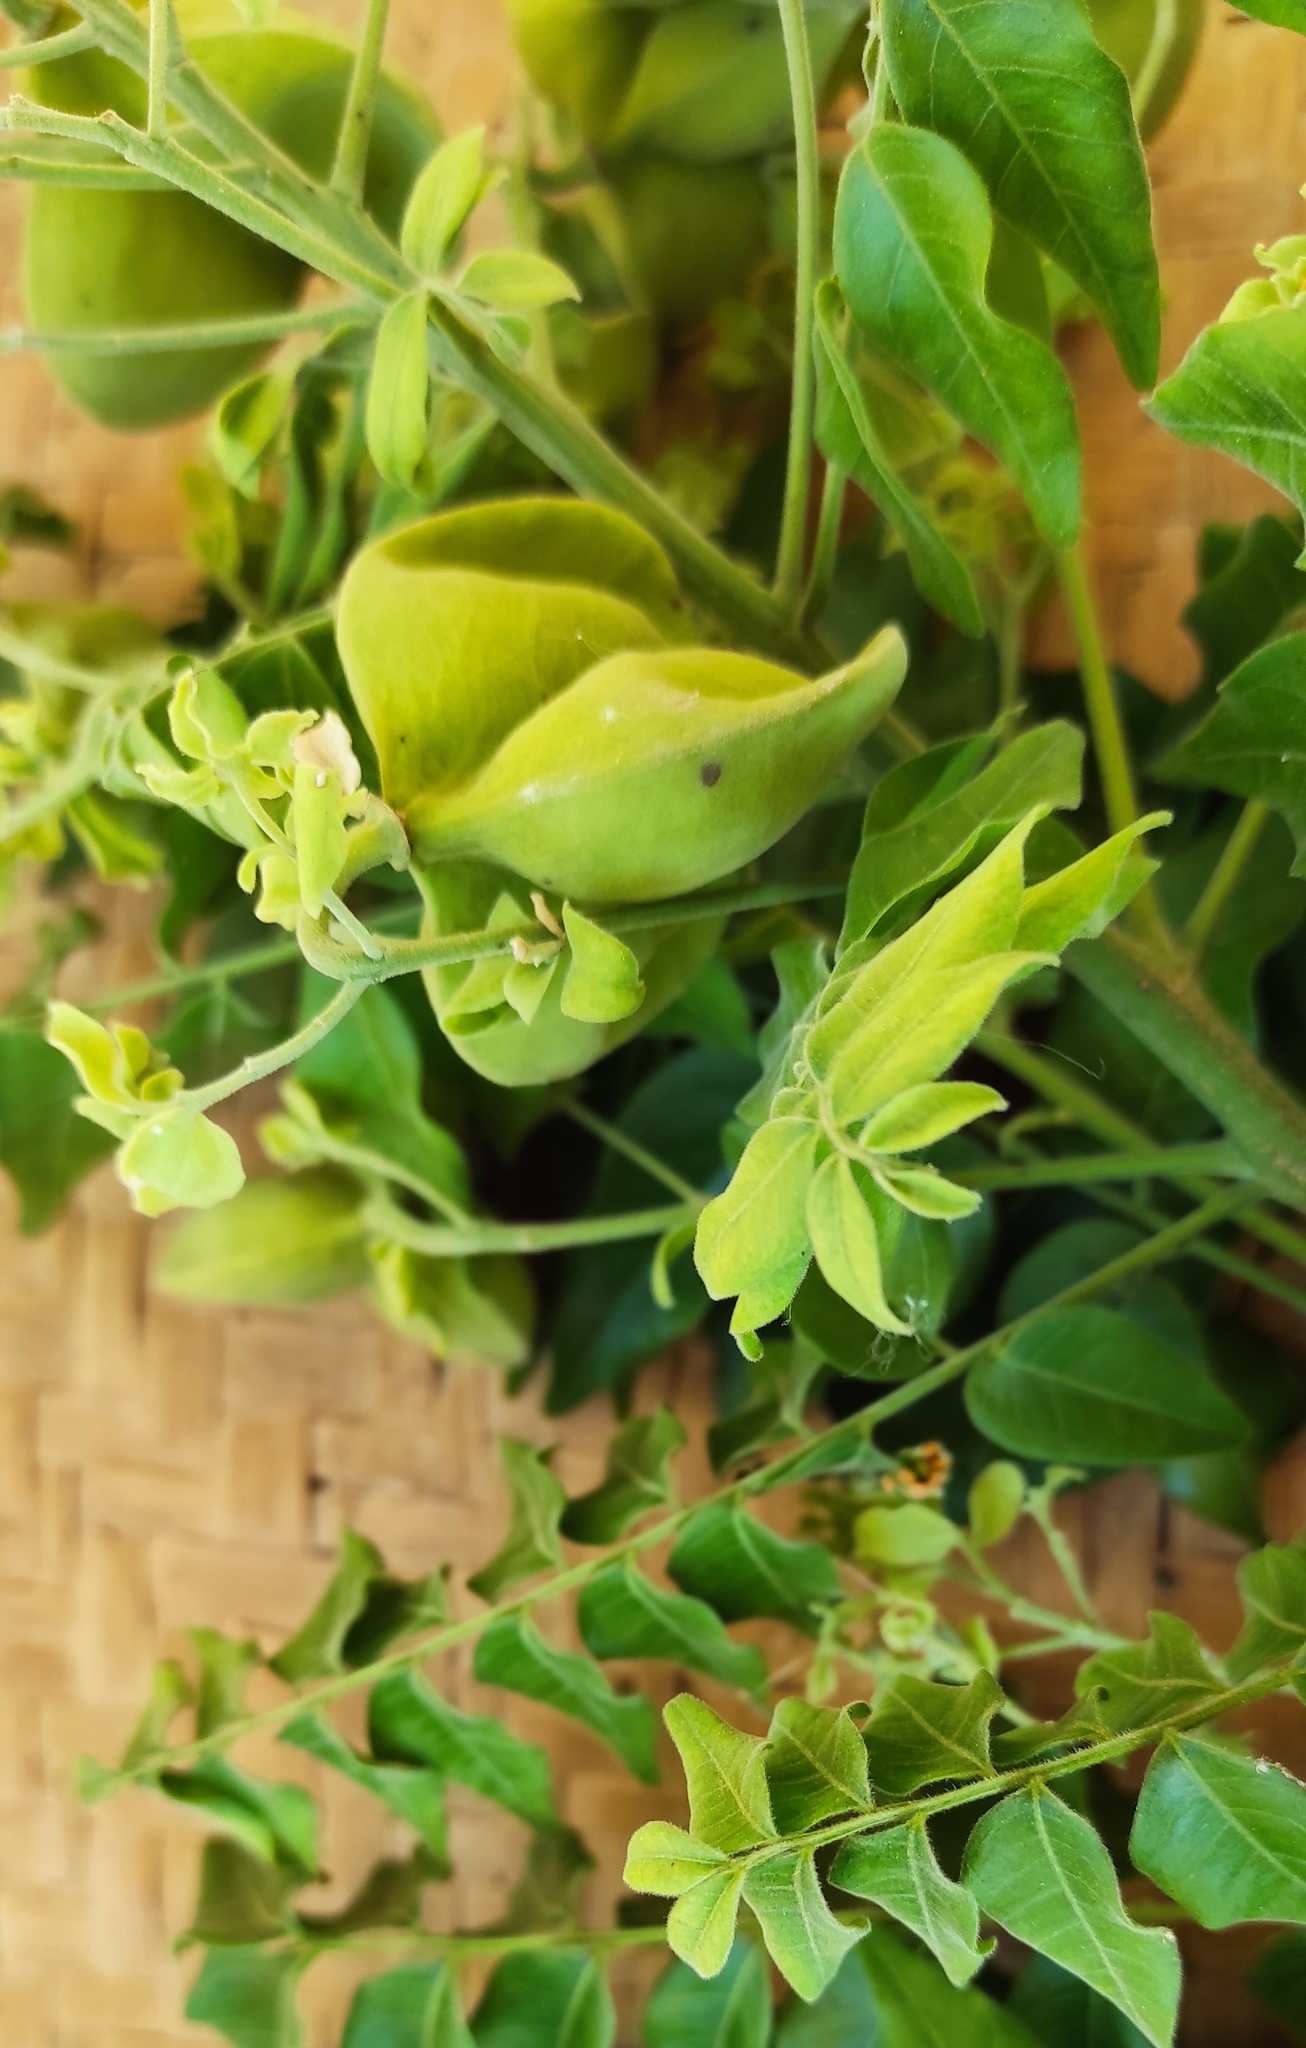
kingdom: Plantae
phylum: Tracheophyta
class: Magnoliopsida
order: Sapindales
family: Sapindaceae
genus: Majidea
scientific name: Majidea zanguebarica
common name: Velvet-seed
